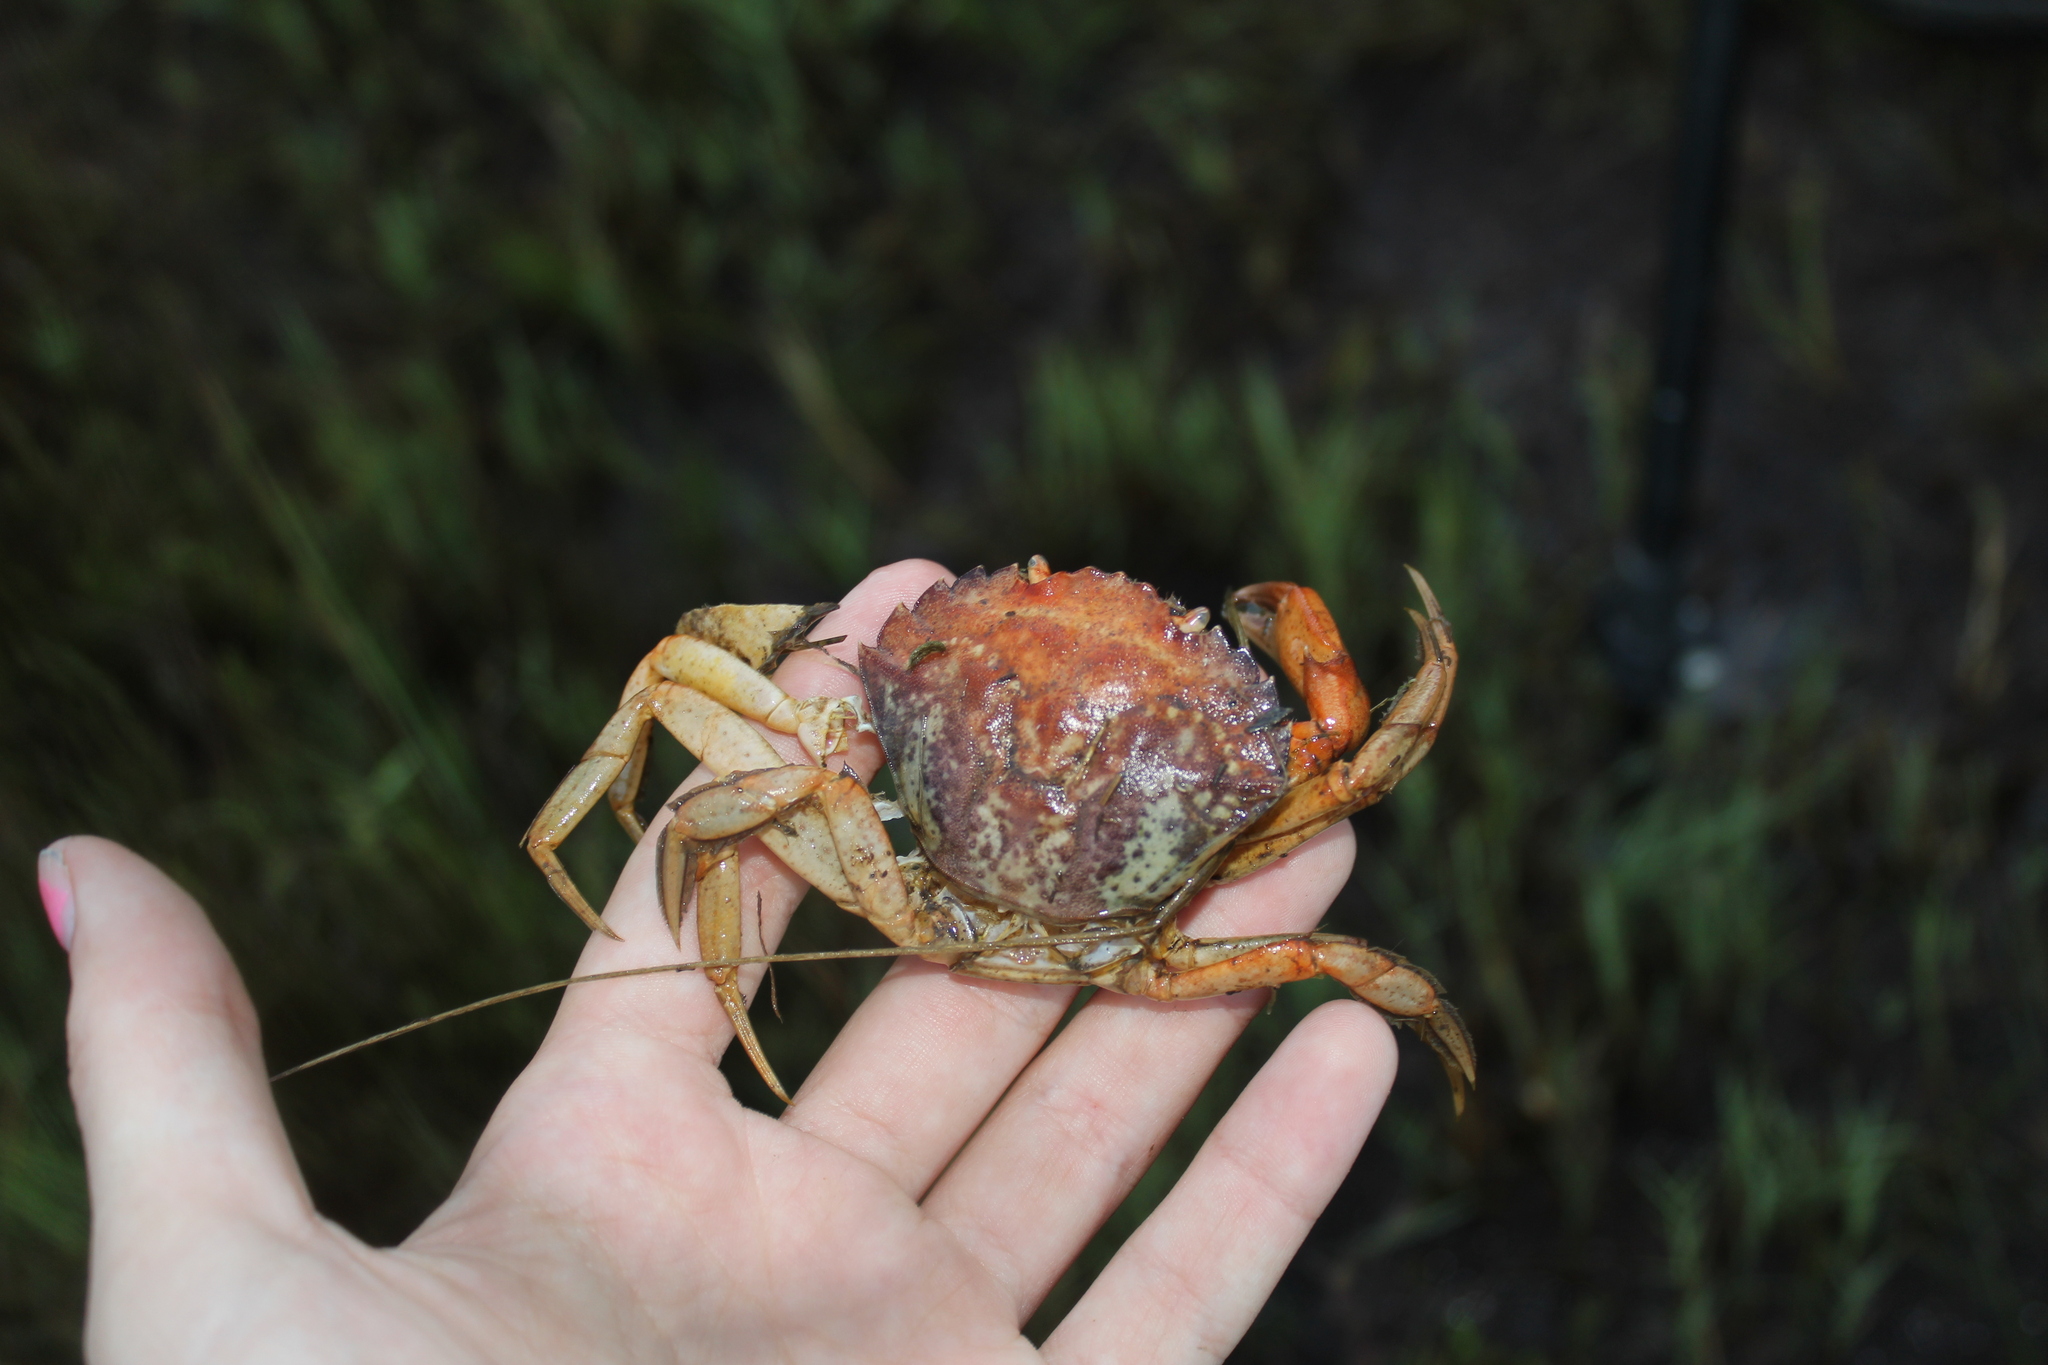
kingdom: Animalia
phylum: Arthropoda
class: Malacostraca
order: Decapoda
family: Carcinidae
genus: Carcinus
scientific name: Carcinus maenas
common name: European green crab
